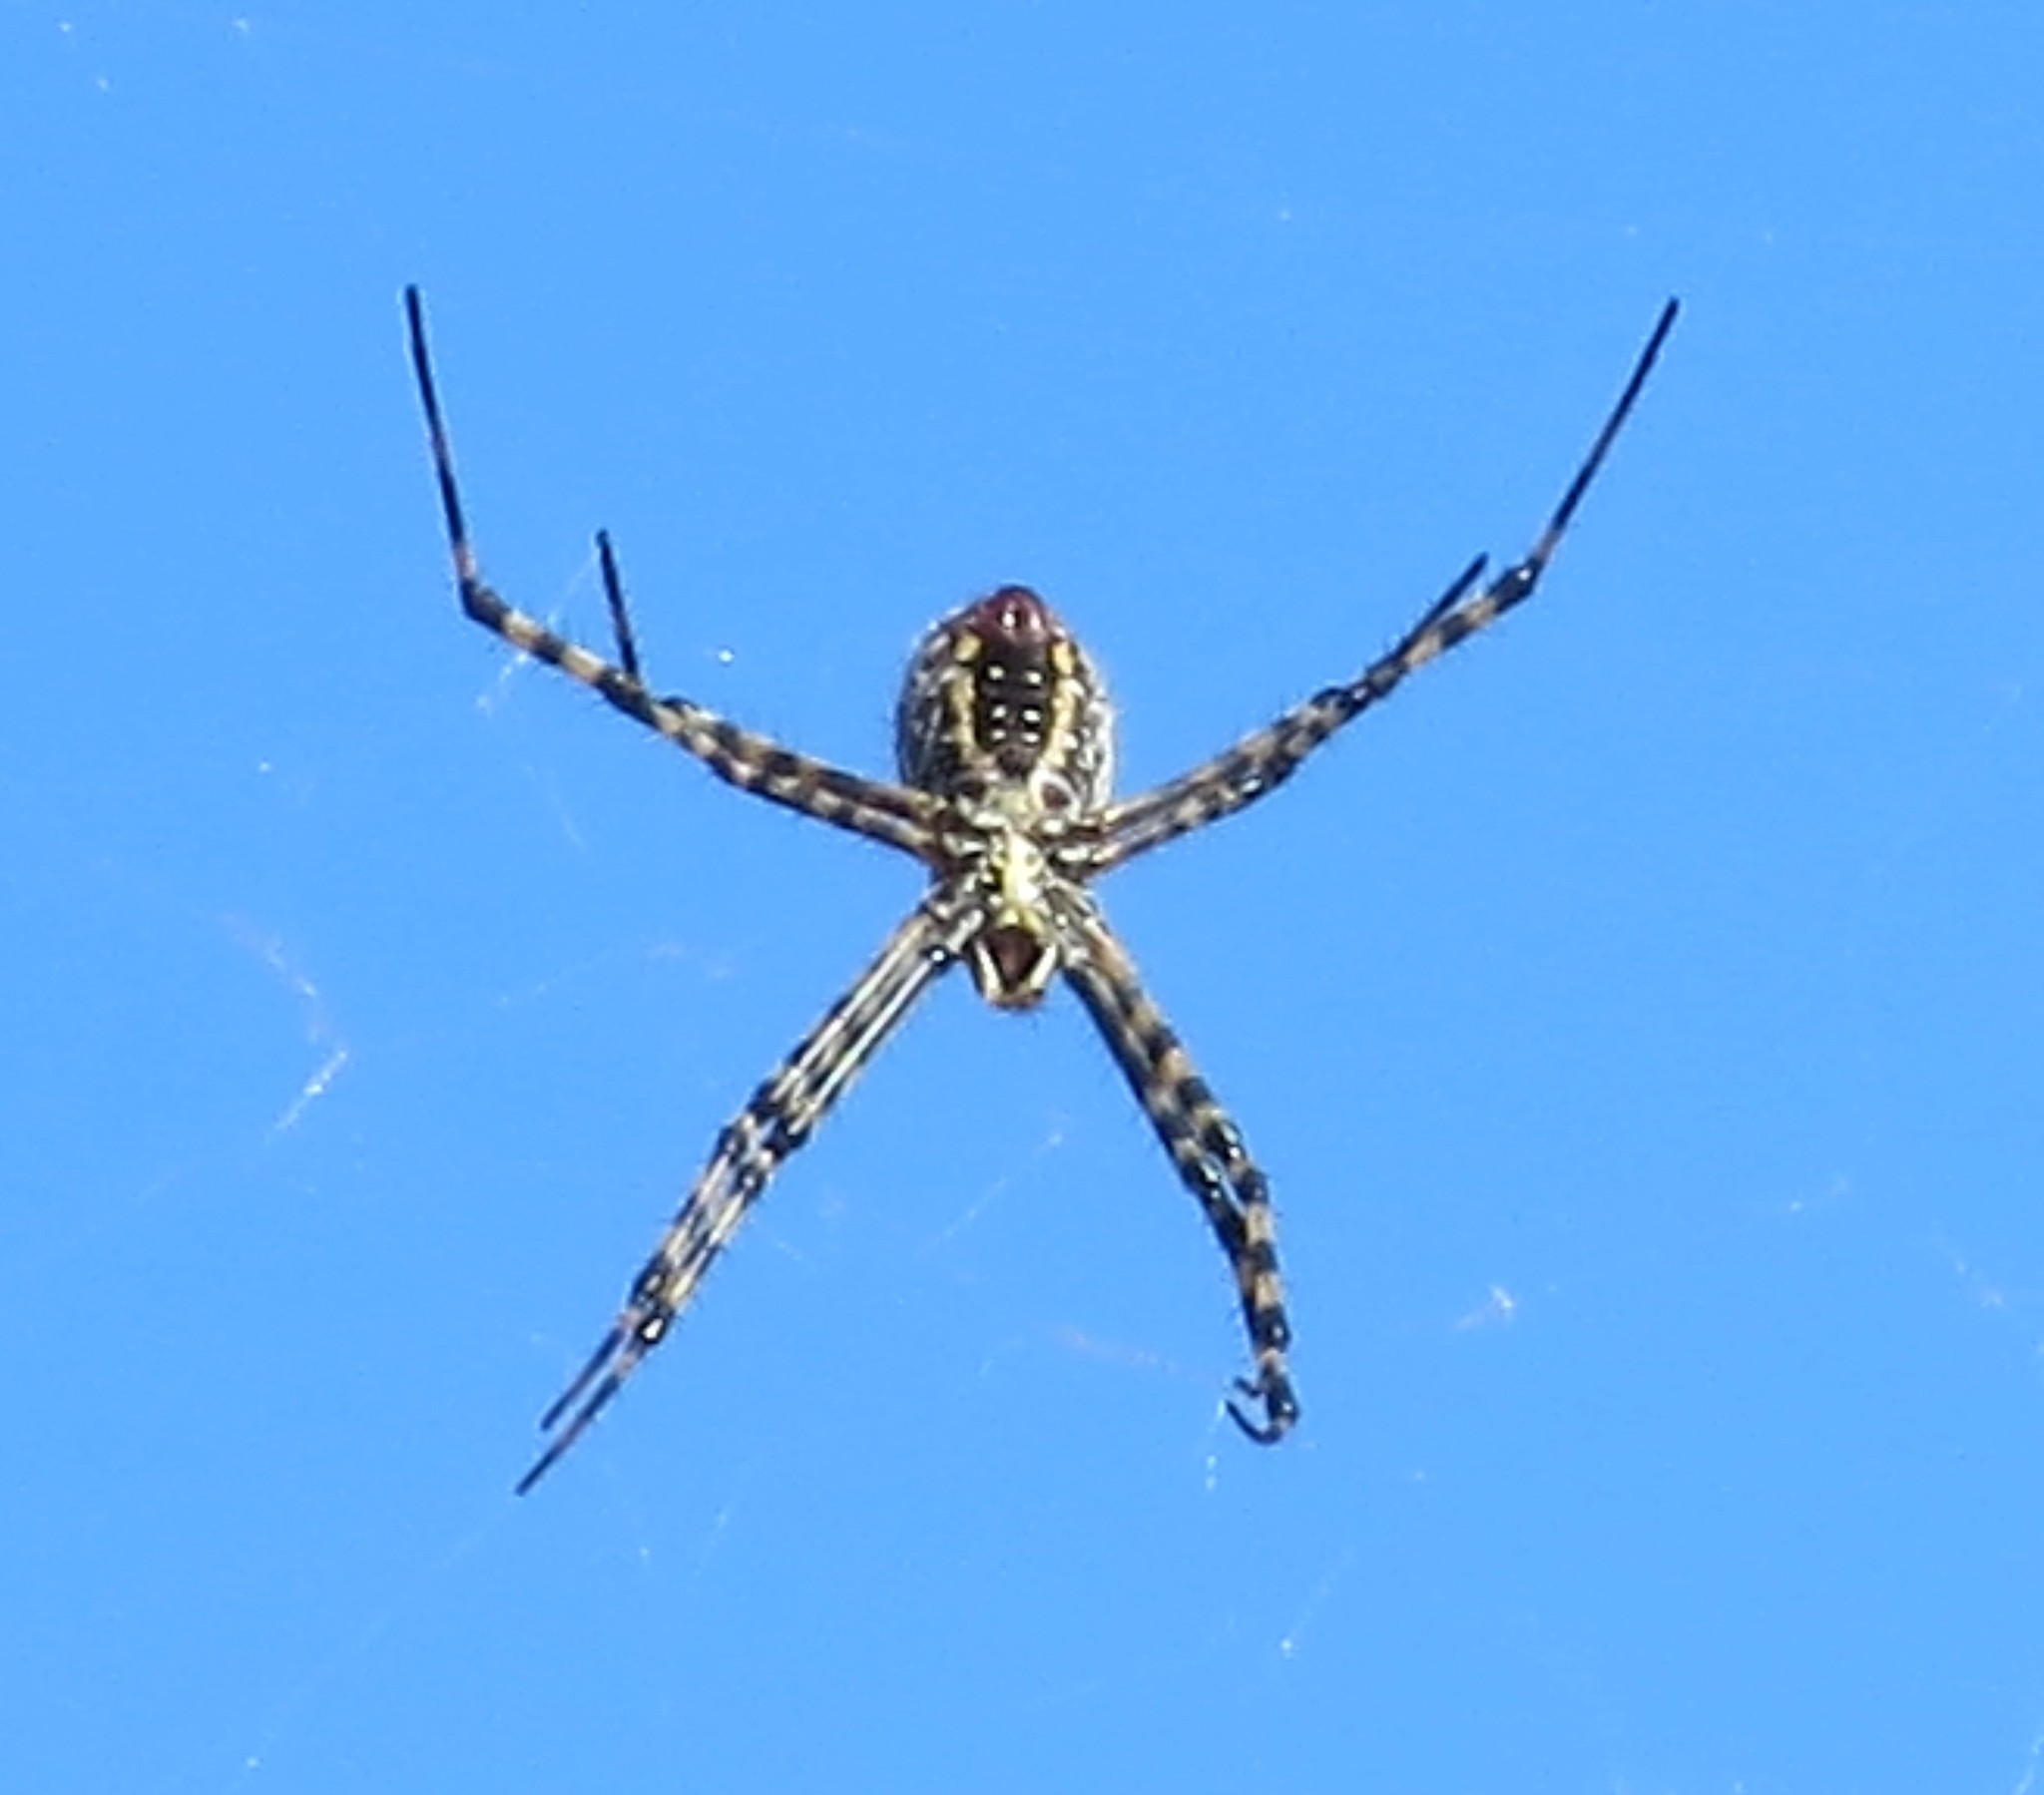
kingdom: Animalia
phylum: Arthropoda
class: Arachnida
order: Araneae
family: Araneidae
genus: Argiope
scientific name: Argiope trifasciata
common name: Banded garden spider
